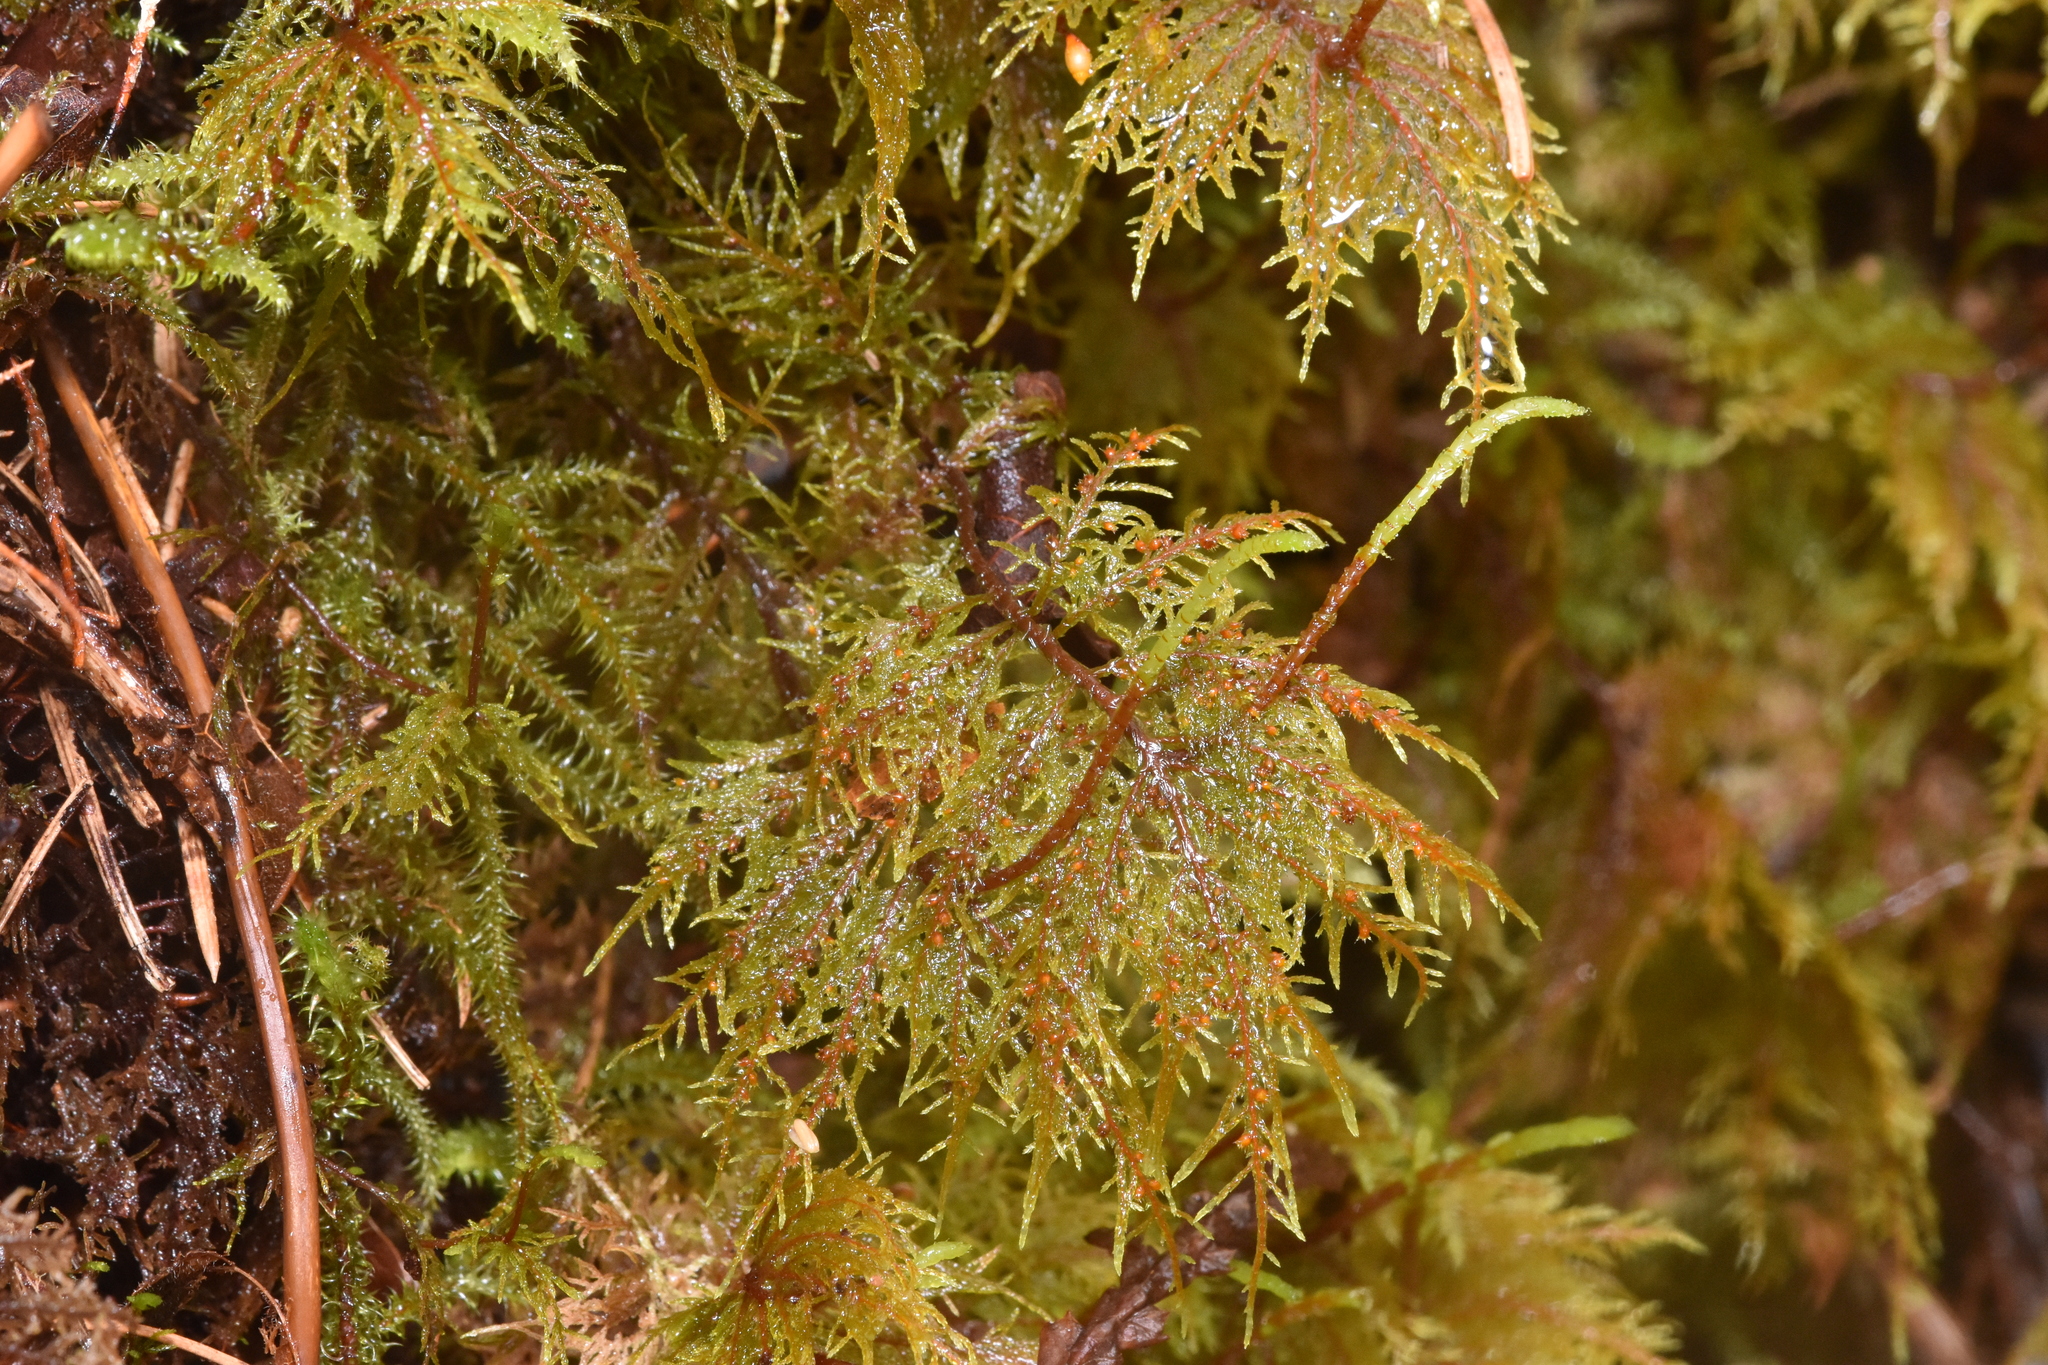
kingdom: Plantae
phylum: Bryophyta
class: Bryopsida
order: Hypnales
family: Hylocomiaceae
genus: Hylocomium
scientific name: Hylocomium splendens
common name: Stairstep moss
